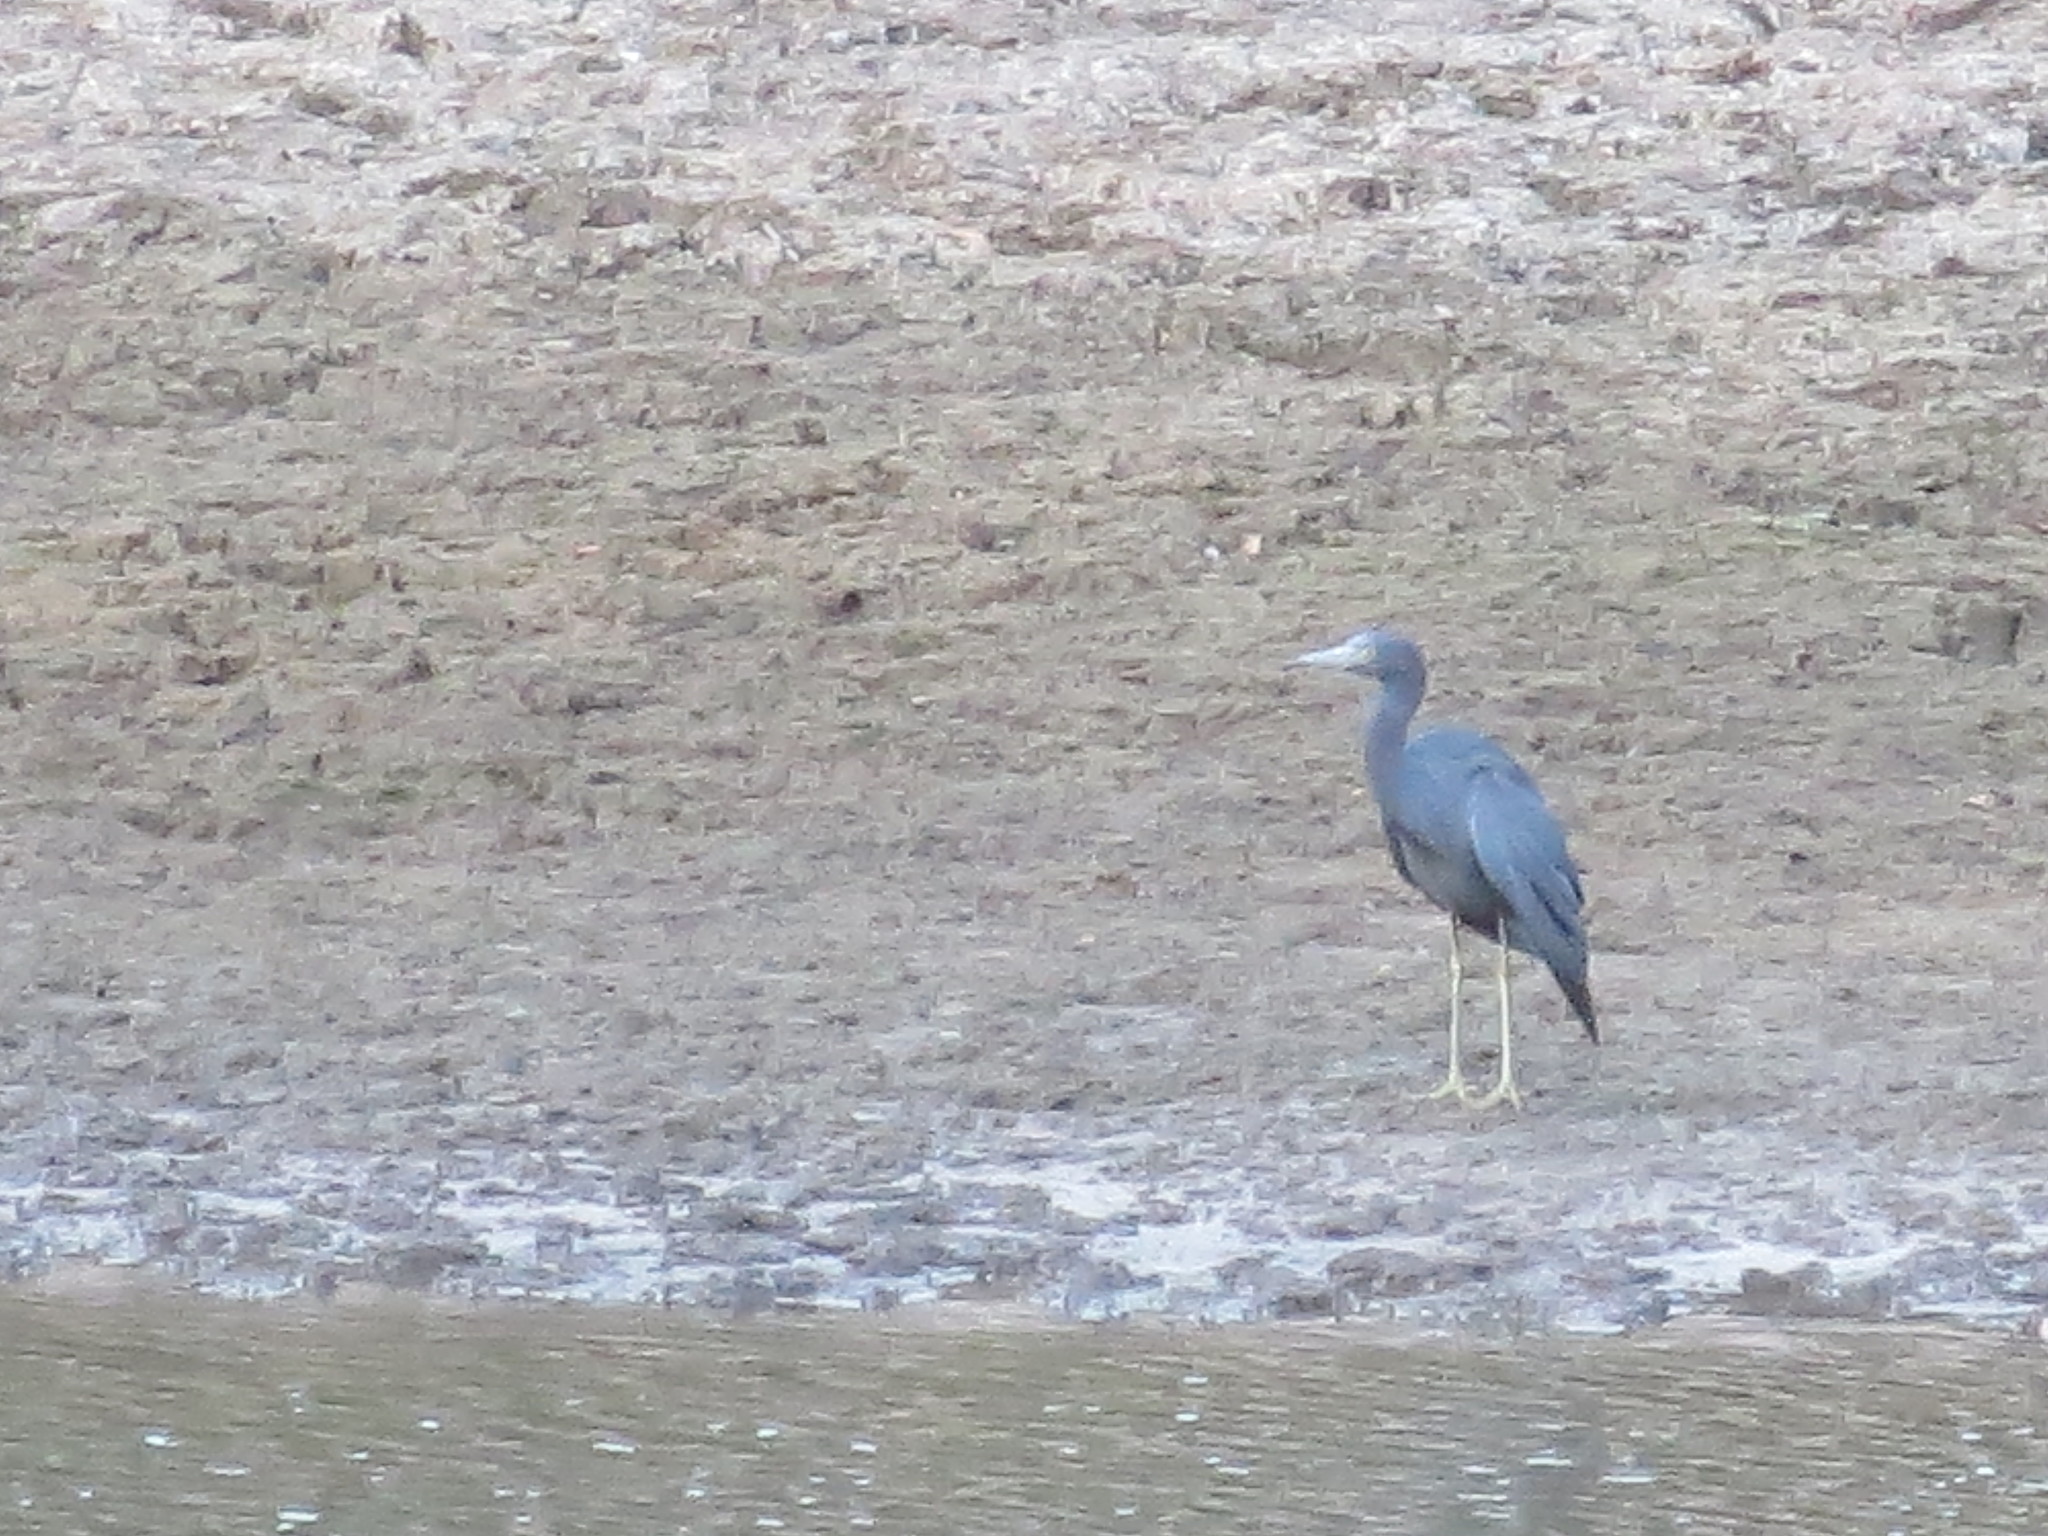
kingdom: Animalia
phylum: Chordata
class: Aves
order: Pelecaniformes
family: Ardeidae
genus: Egretta
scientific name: Egretta caerulea
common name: Little blue heron
